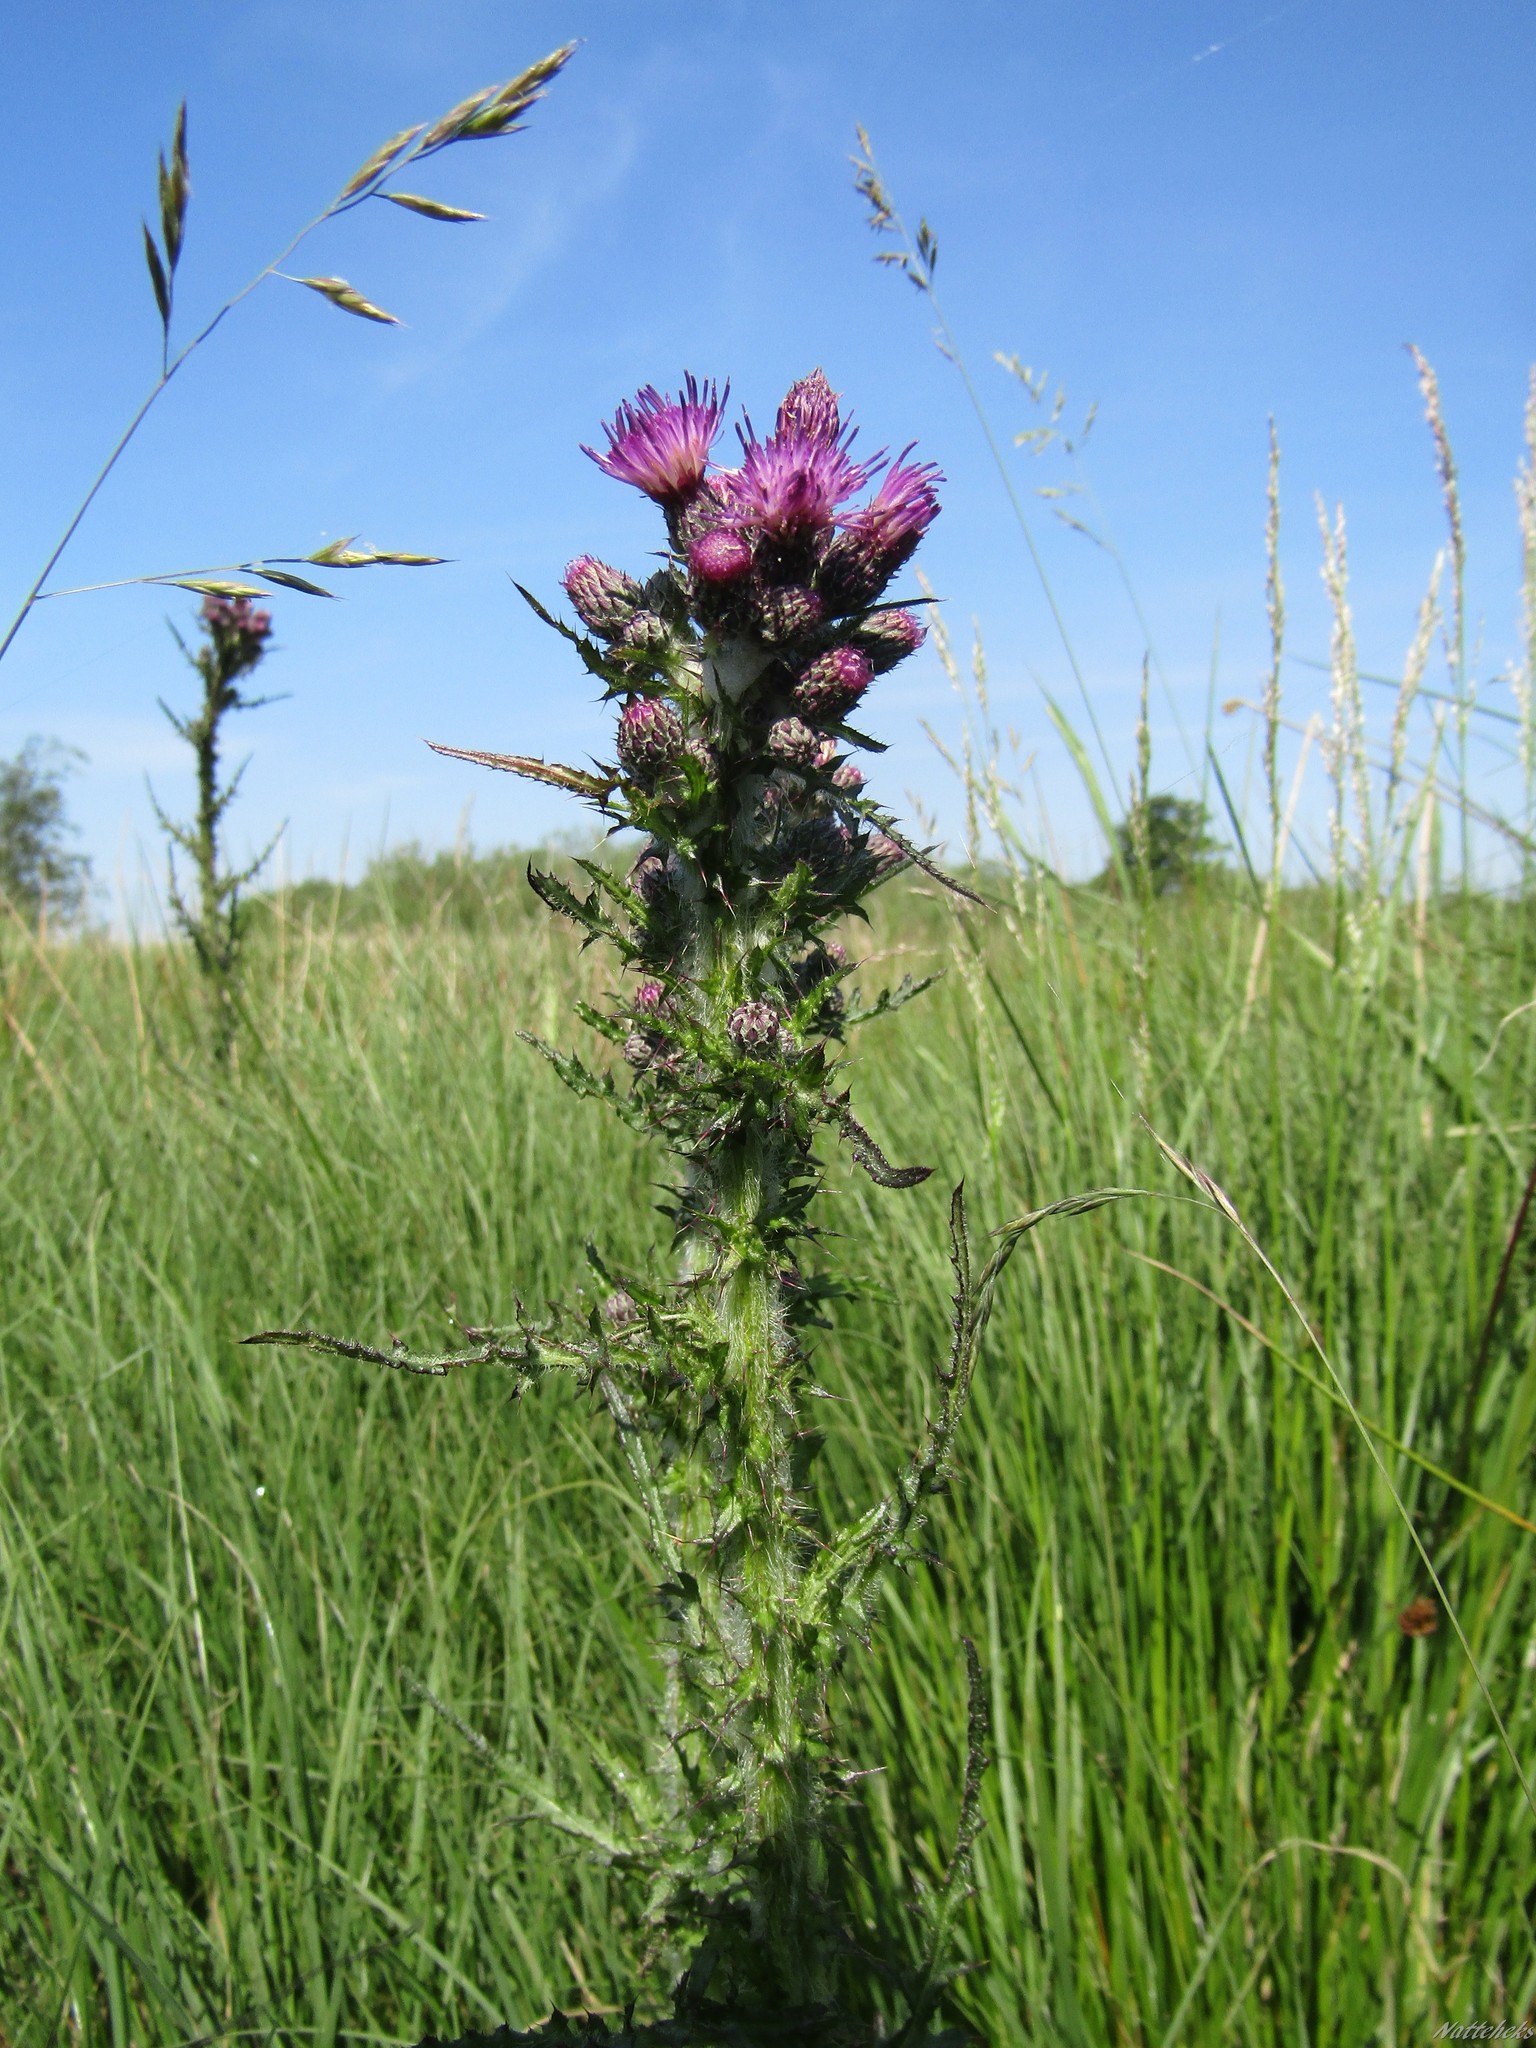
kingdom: Plantae
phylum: Tracheophyta
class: Magnoliopsida
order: Asterales
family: Asteraceae
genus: Cirsium
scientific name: Cirsium palustre
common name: Marsh thistle
